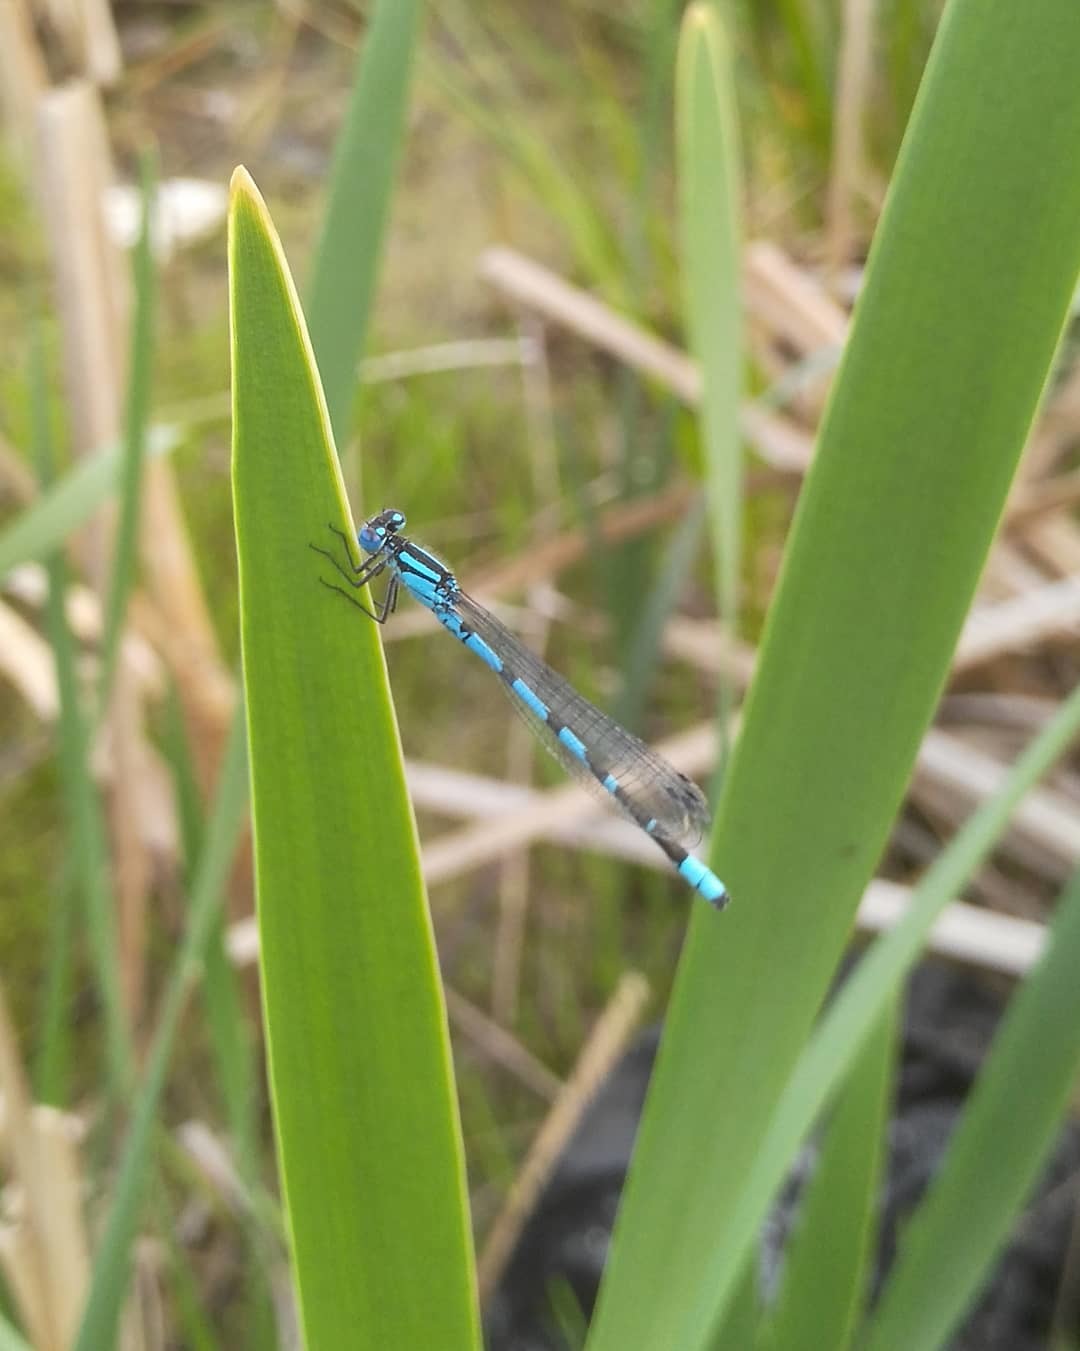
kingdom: Animalia
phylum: Arthropoda
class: Insecta
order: Odonata
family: Coenagrionidae
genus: Enallagma
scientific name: Enallagma cyathigerum
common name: Common blue damselfly
